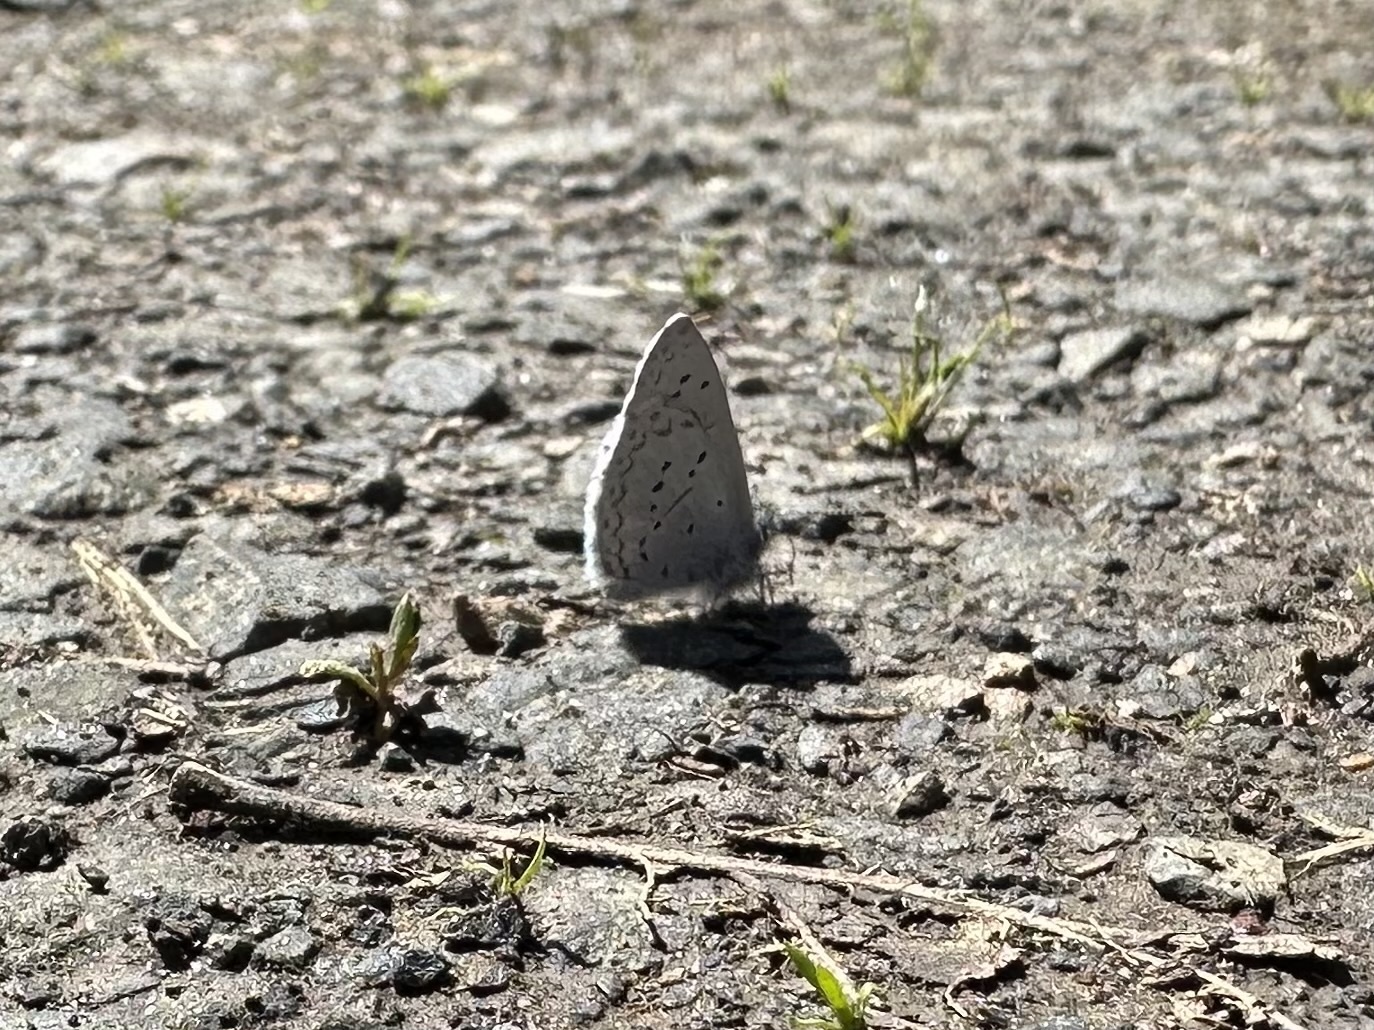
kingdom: Animalia
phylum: Arthropoda
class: Insecta
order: Lepidoptera
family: Lycaenidae
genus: Celastrina
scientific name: Celastrina ladon
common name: Spring azure
